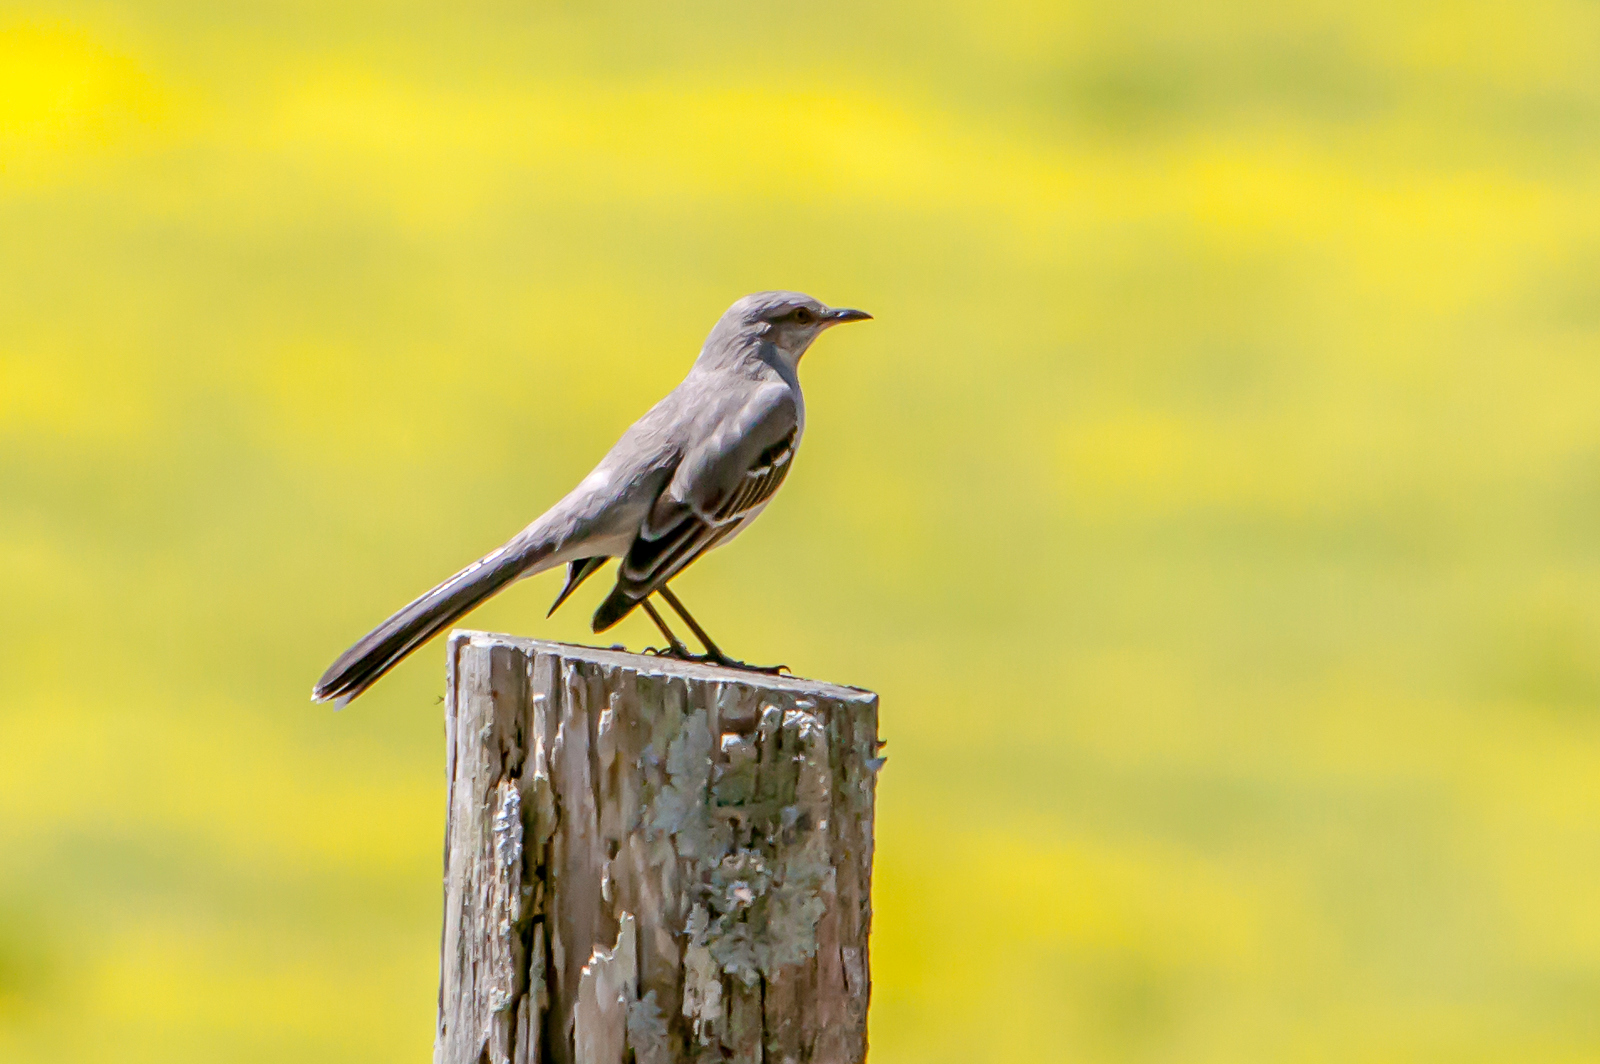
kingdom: Animalia
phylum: Chordata
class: Aves
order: Passeriformes
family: Mimidae
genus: Mimus
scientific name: Mimus polyglottos
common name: Northern mockingbird
